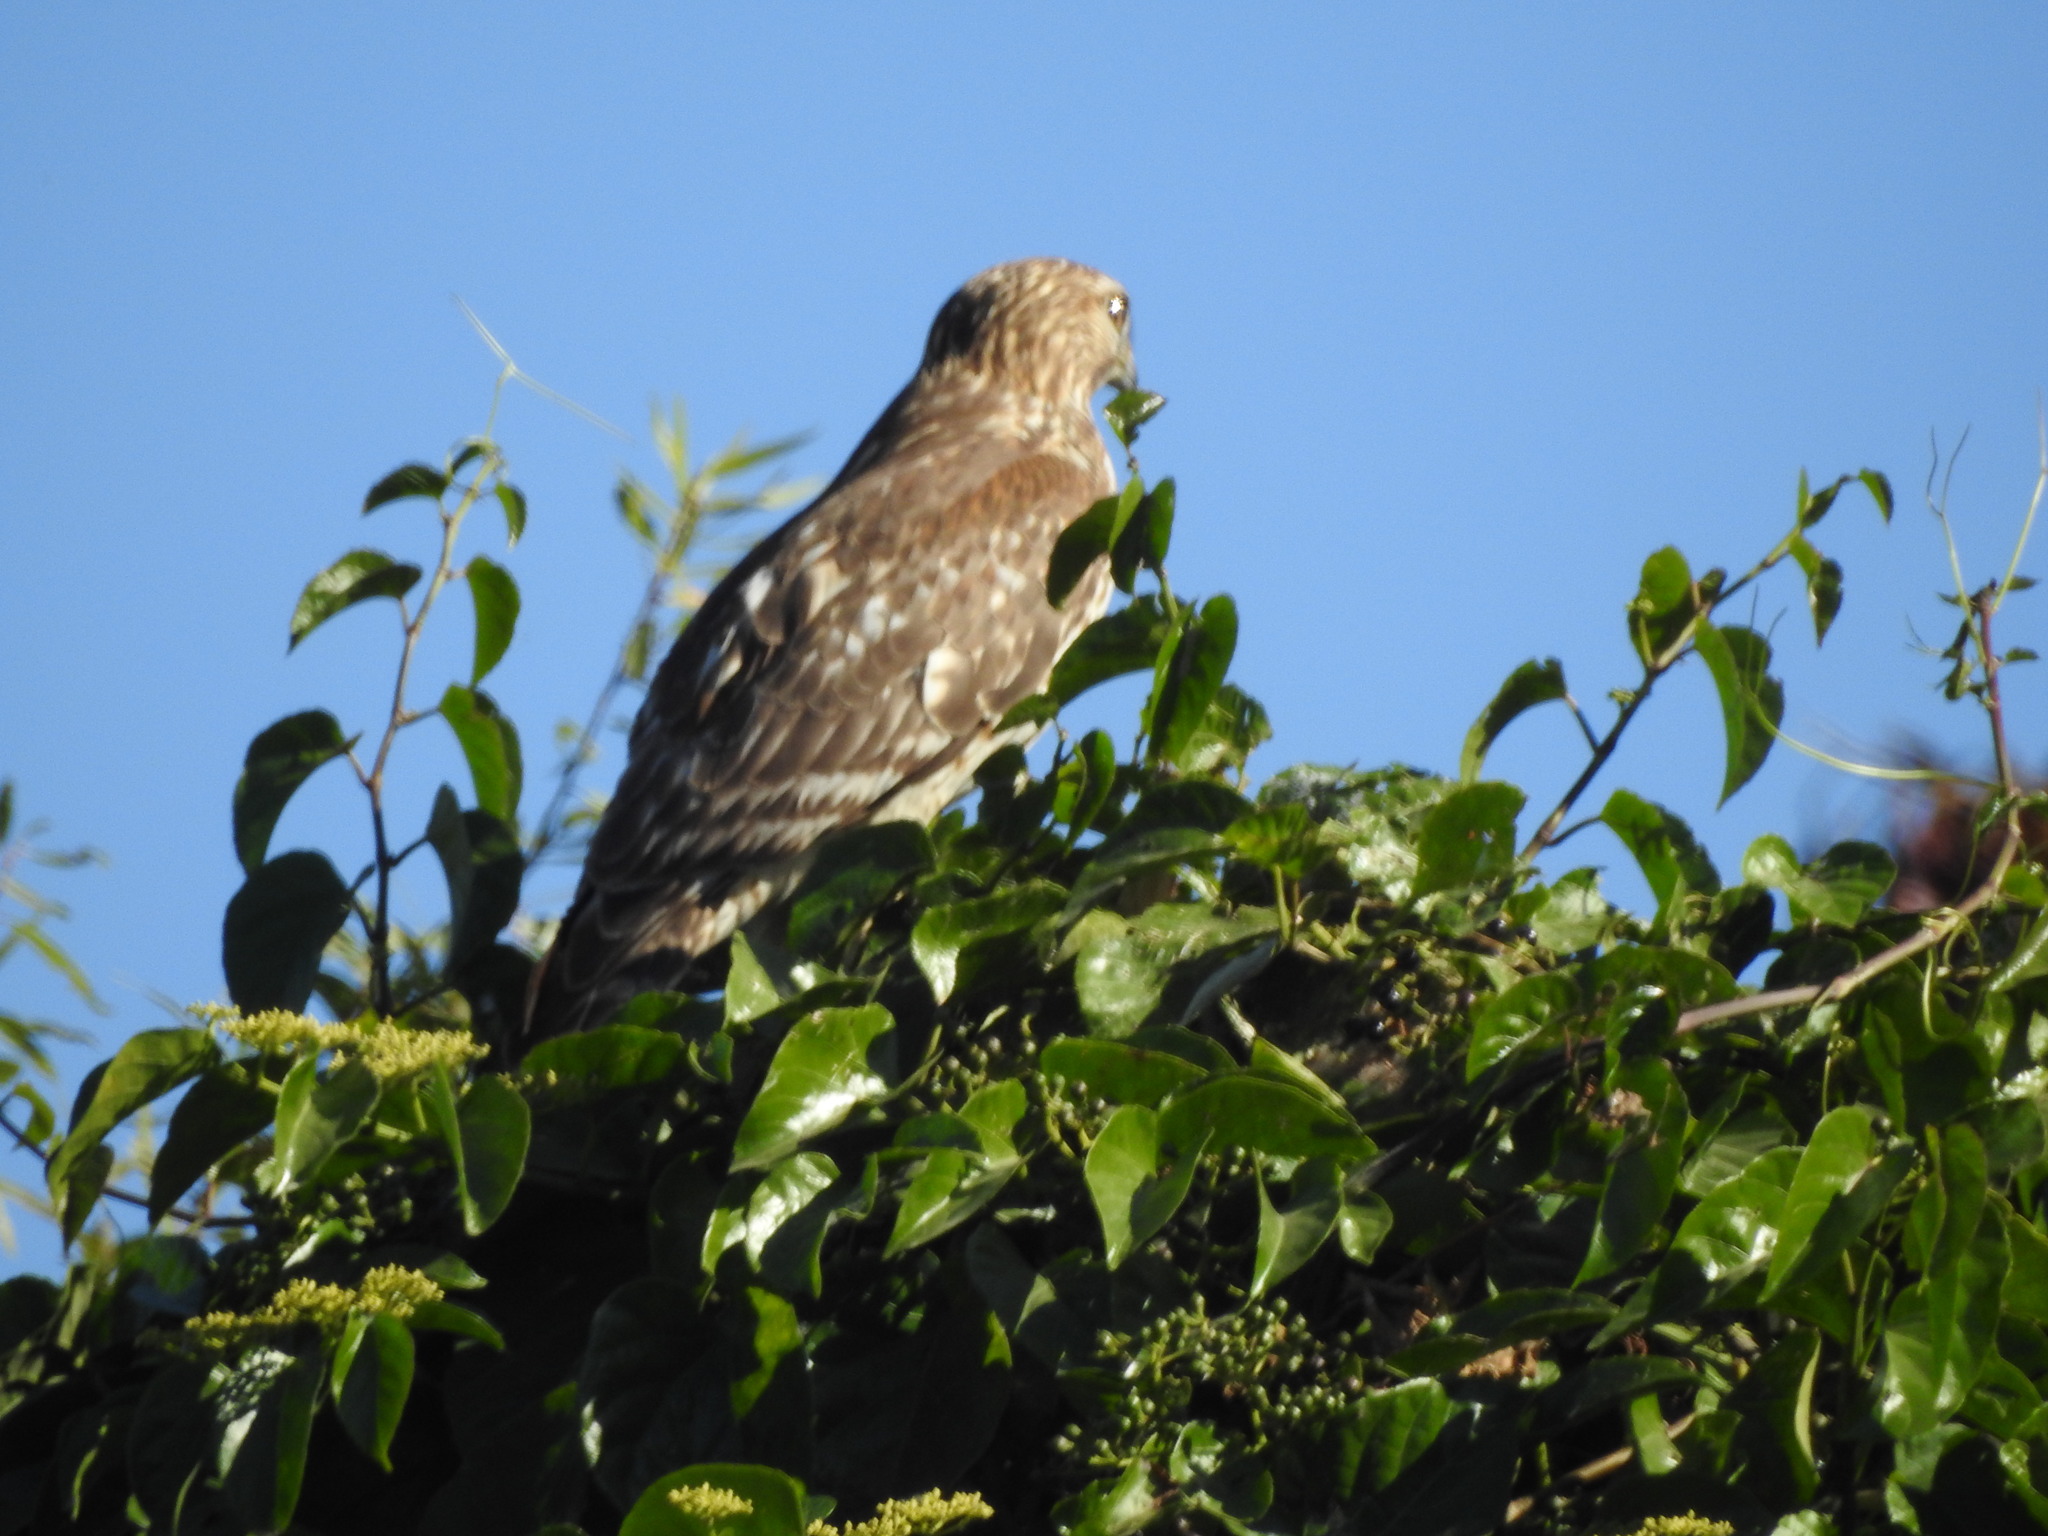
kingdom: Animalia
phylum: Chordata
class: Aves
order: Accipitriformes
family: Accipitridae
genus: Buteo
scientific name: Buteo lineatus
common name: Red-shouldered hawk
